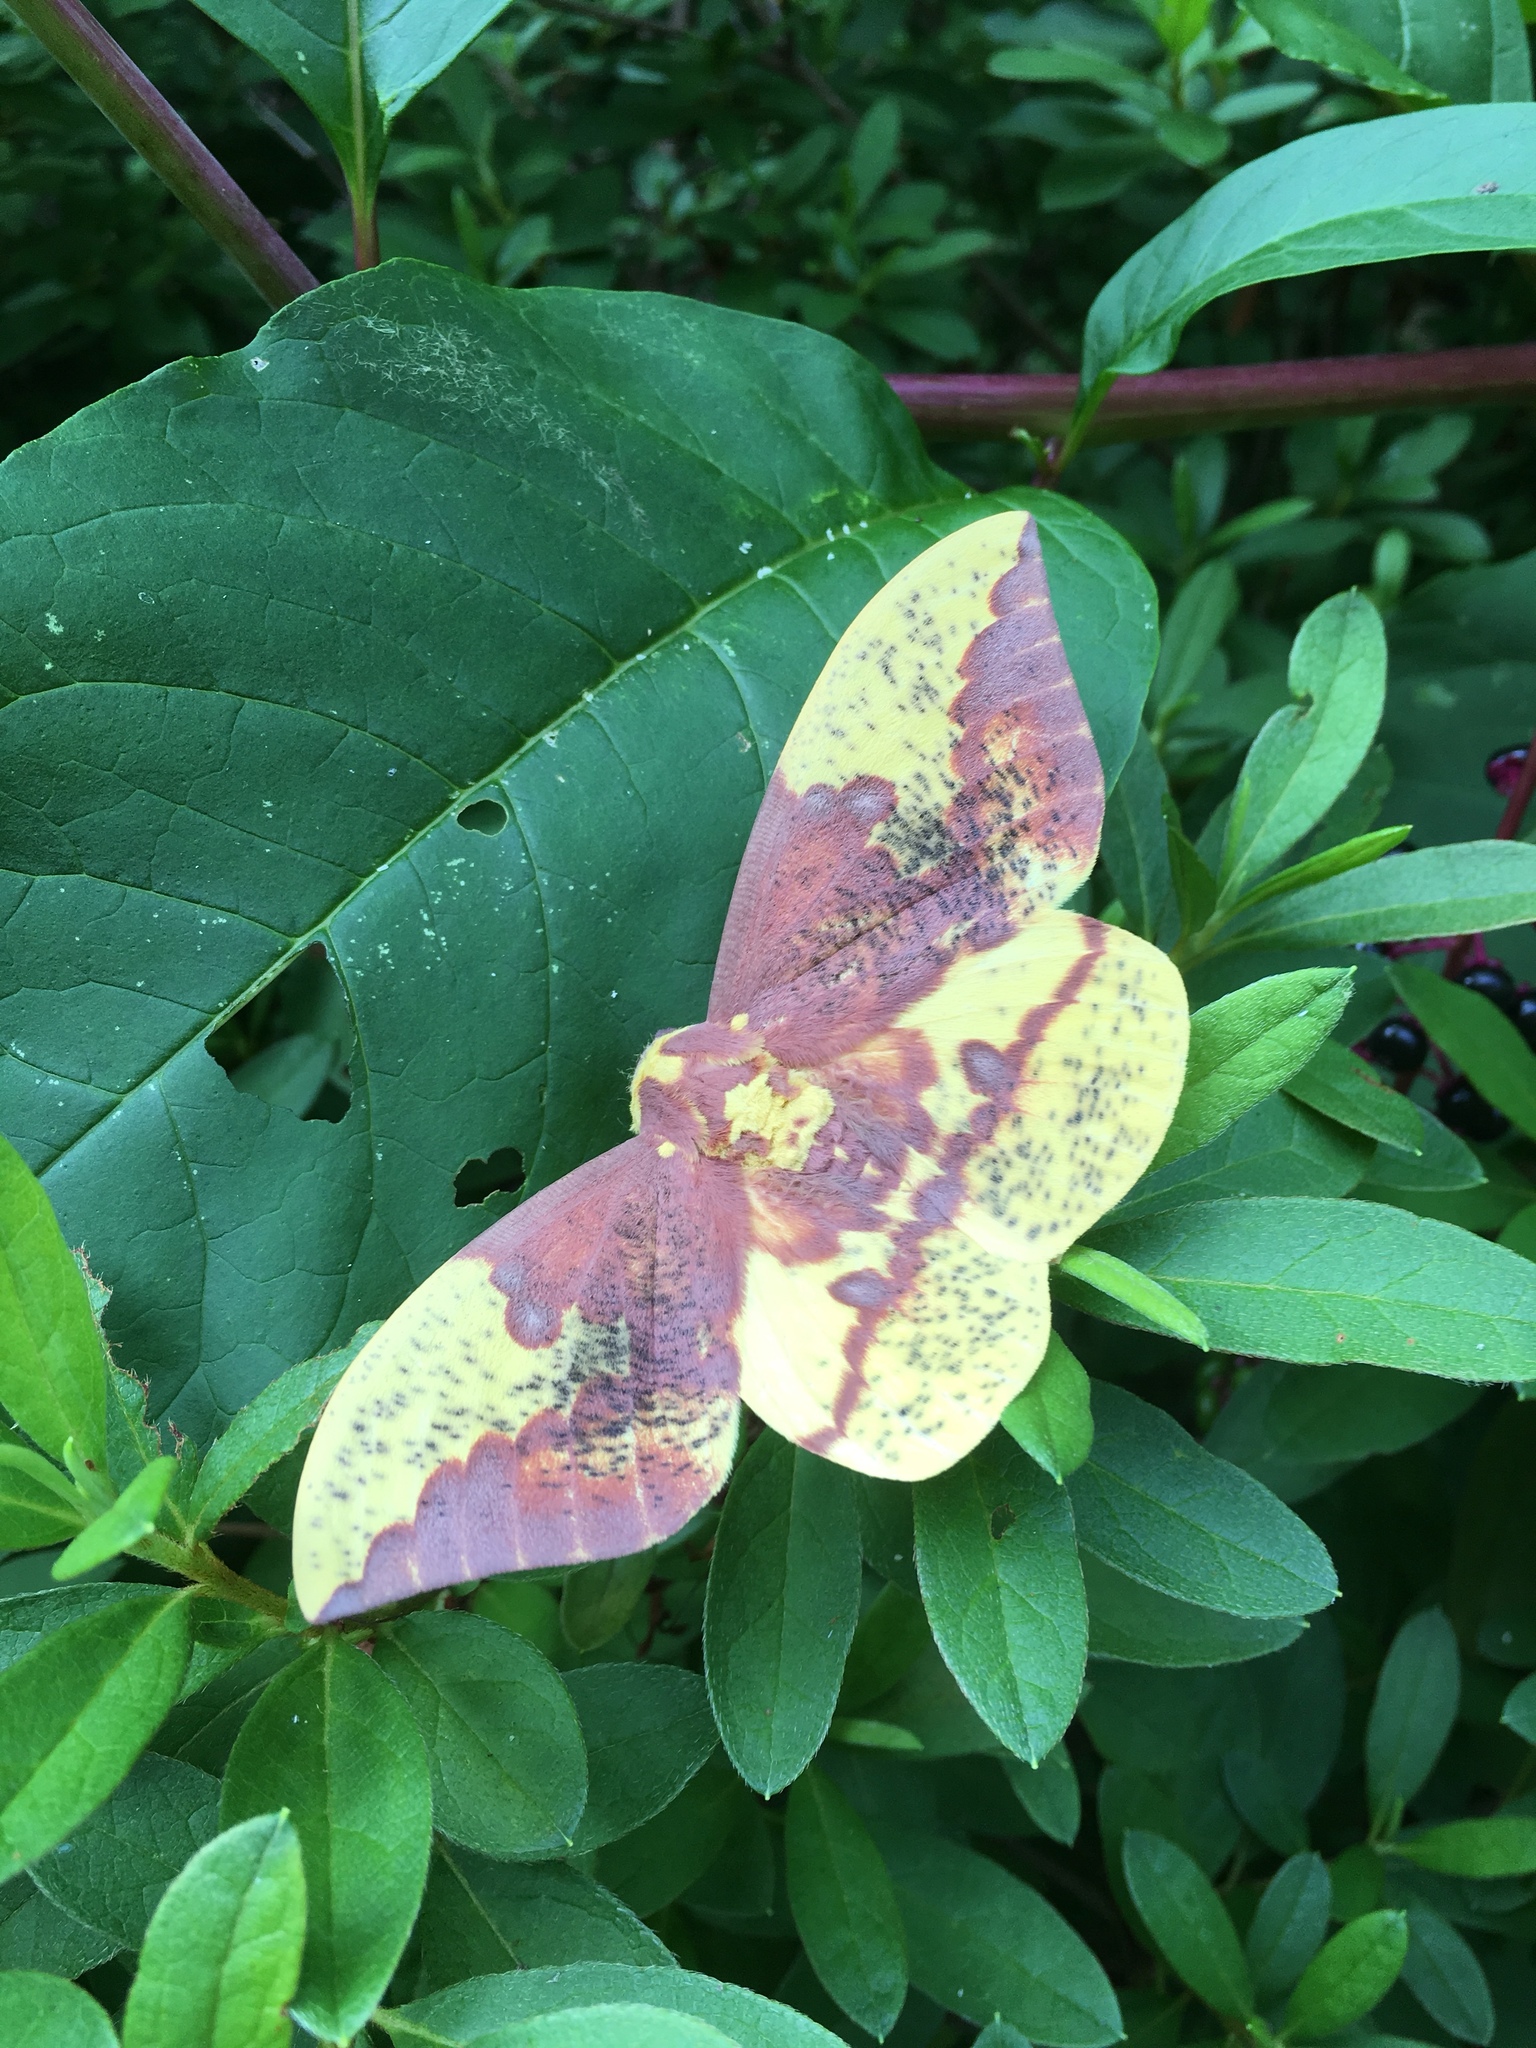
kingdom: Animalia
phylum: Arthropoda
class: Insecta
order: Lepidoptera
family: Saturniidae
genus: Eacles
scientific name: Eacles imperialis
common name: Imperial moth
